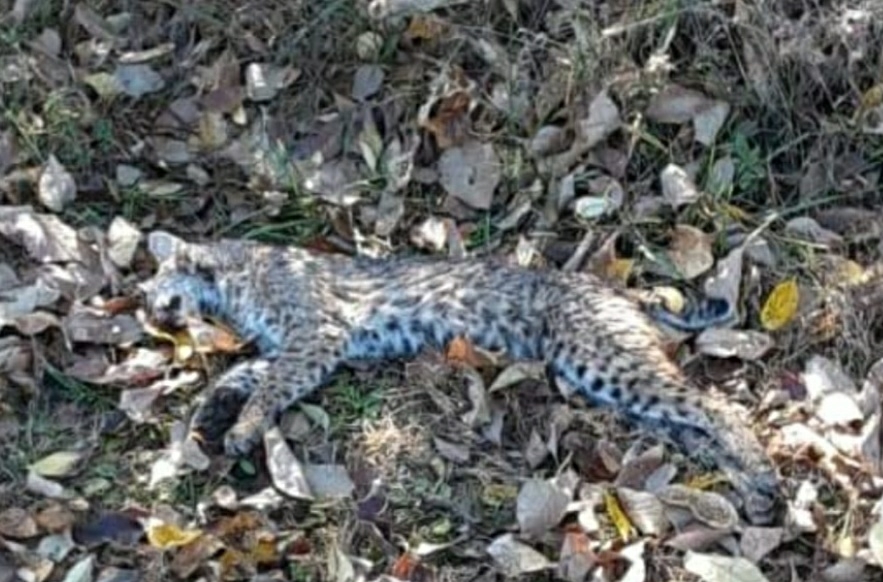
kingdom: Animalia
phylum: Chordata
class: Mammalia
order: Carnivora
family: Felidae
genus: Lynx
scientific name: Lynx rufus
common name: Bobcat
